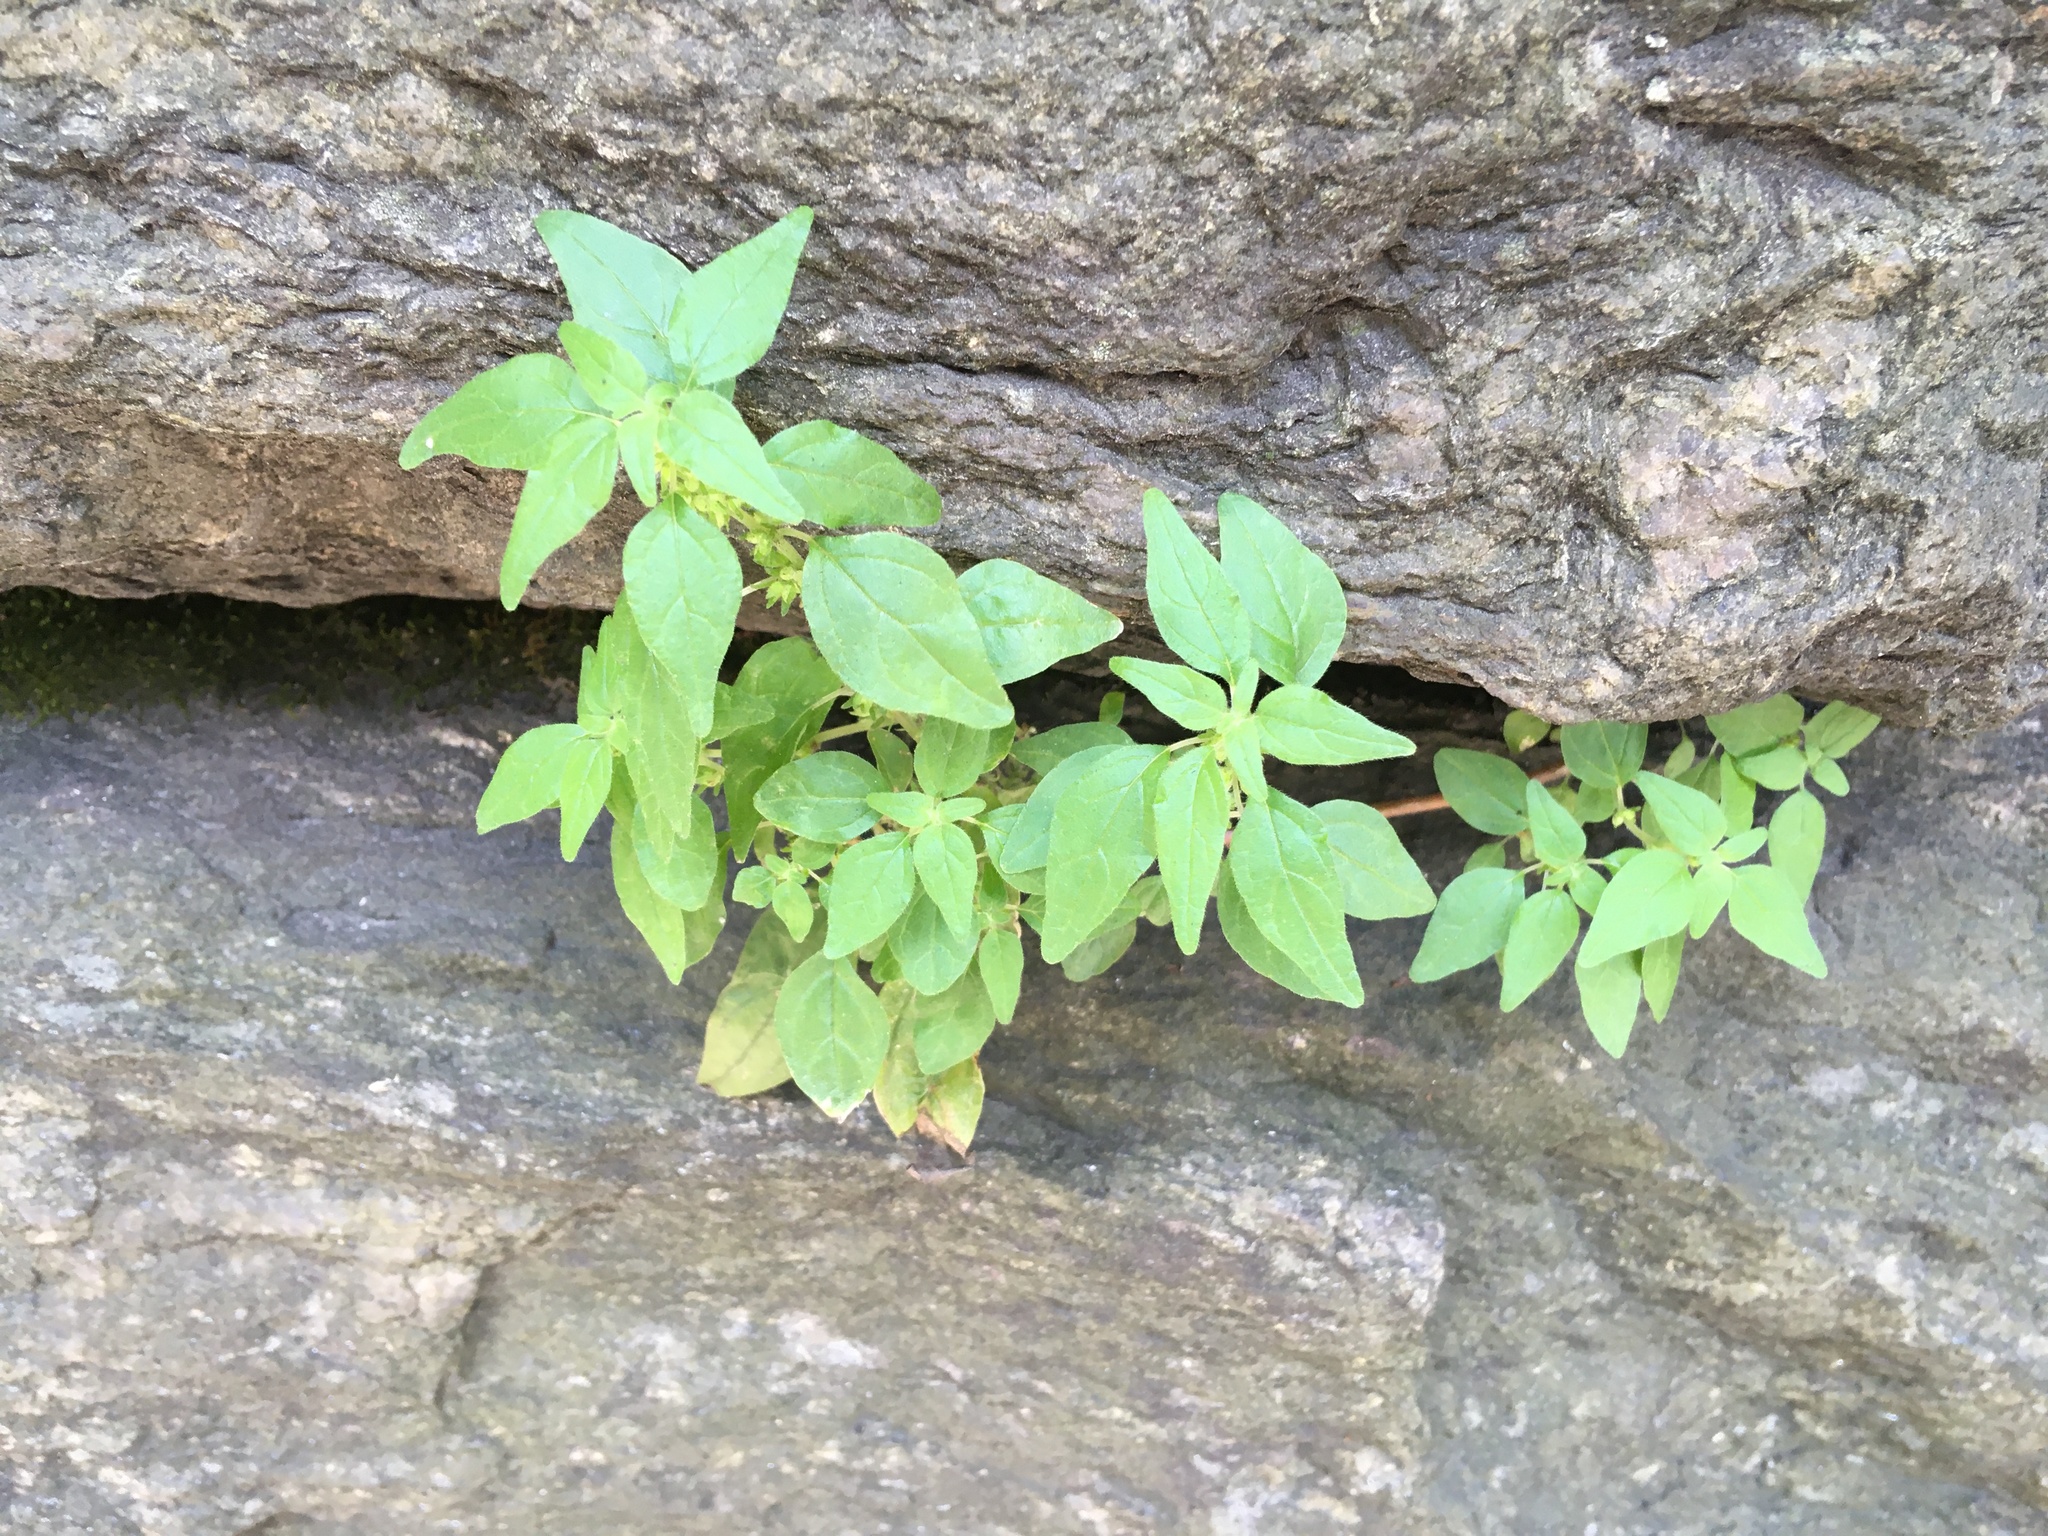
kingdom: Plantae
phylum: Tracheophyta
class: Magnoliopsida
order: Rosales
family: Urticaceae
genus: Parietaria
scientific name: Parietaria pensylvanica
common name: Pennsylvania pellitory
